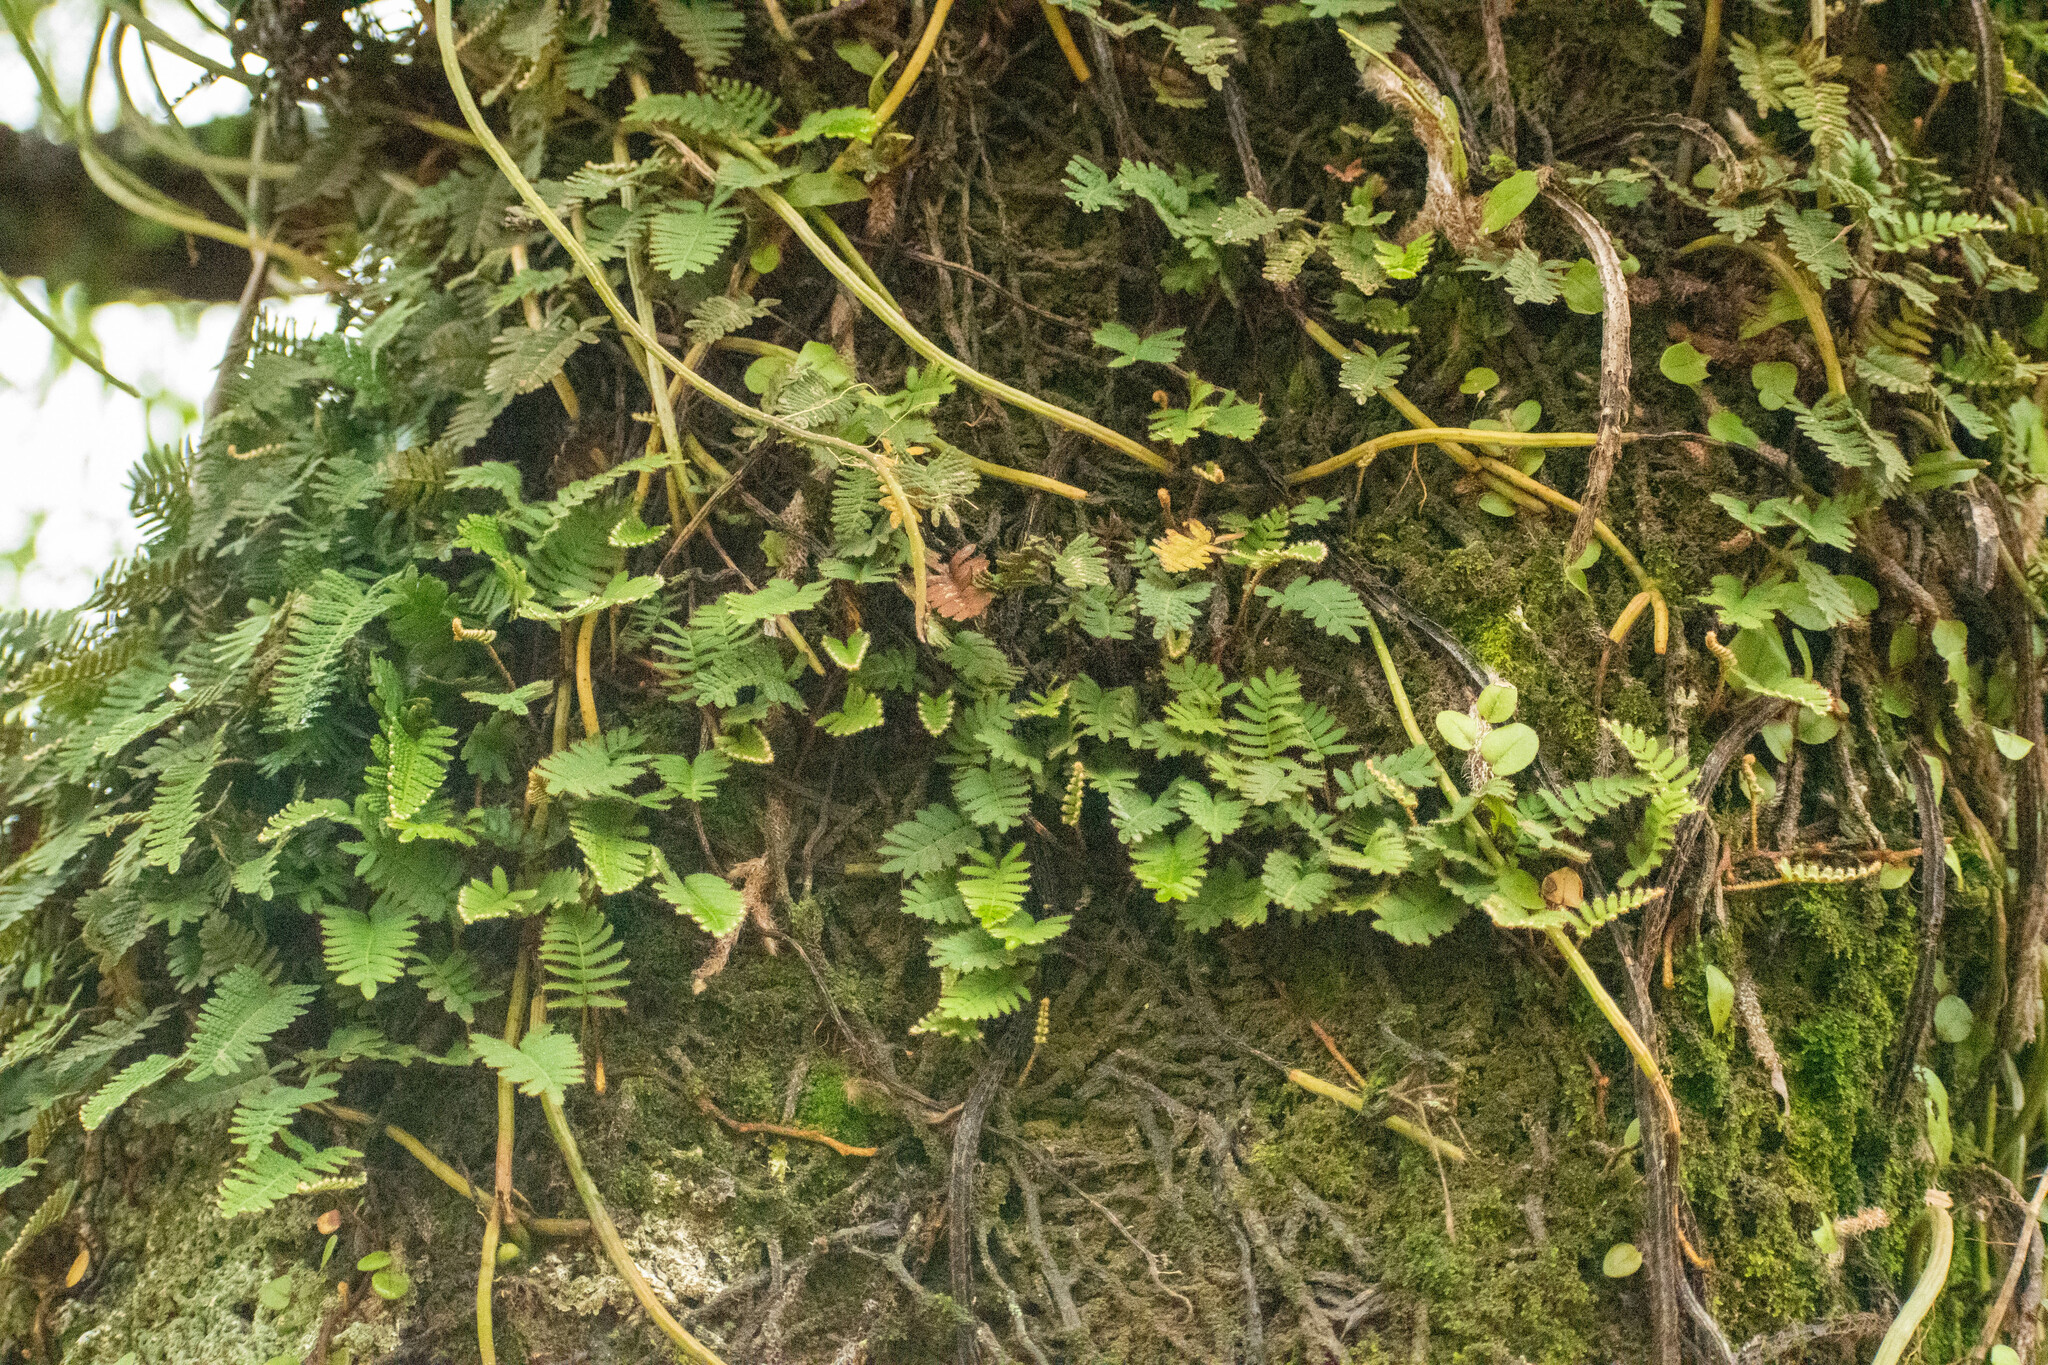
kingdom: Plantae
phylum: Tracheophyta
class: Polypodiopsida
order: Polypodiales
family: Polypodiaceae
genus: Pleopeltis
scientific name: Pleopeltis minima
